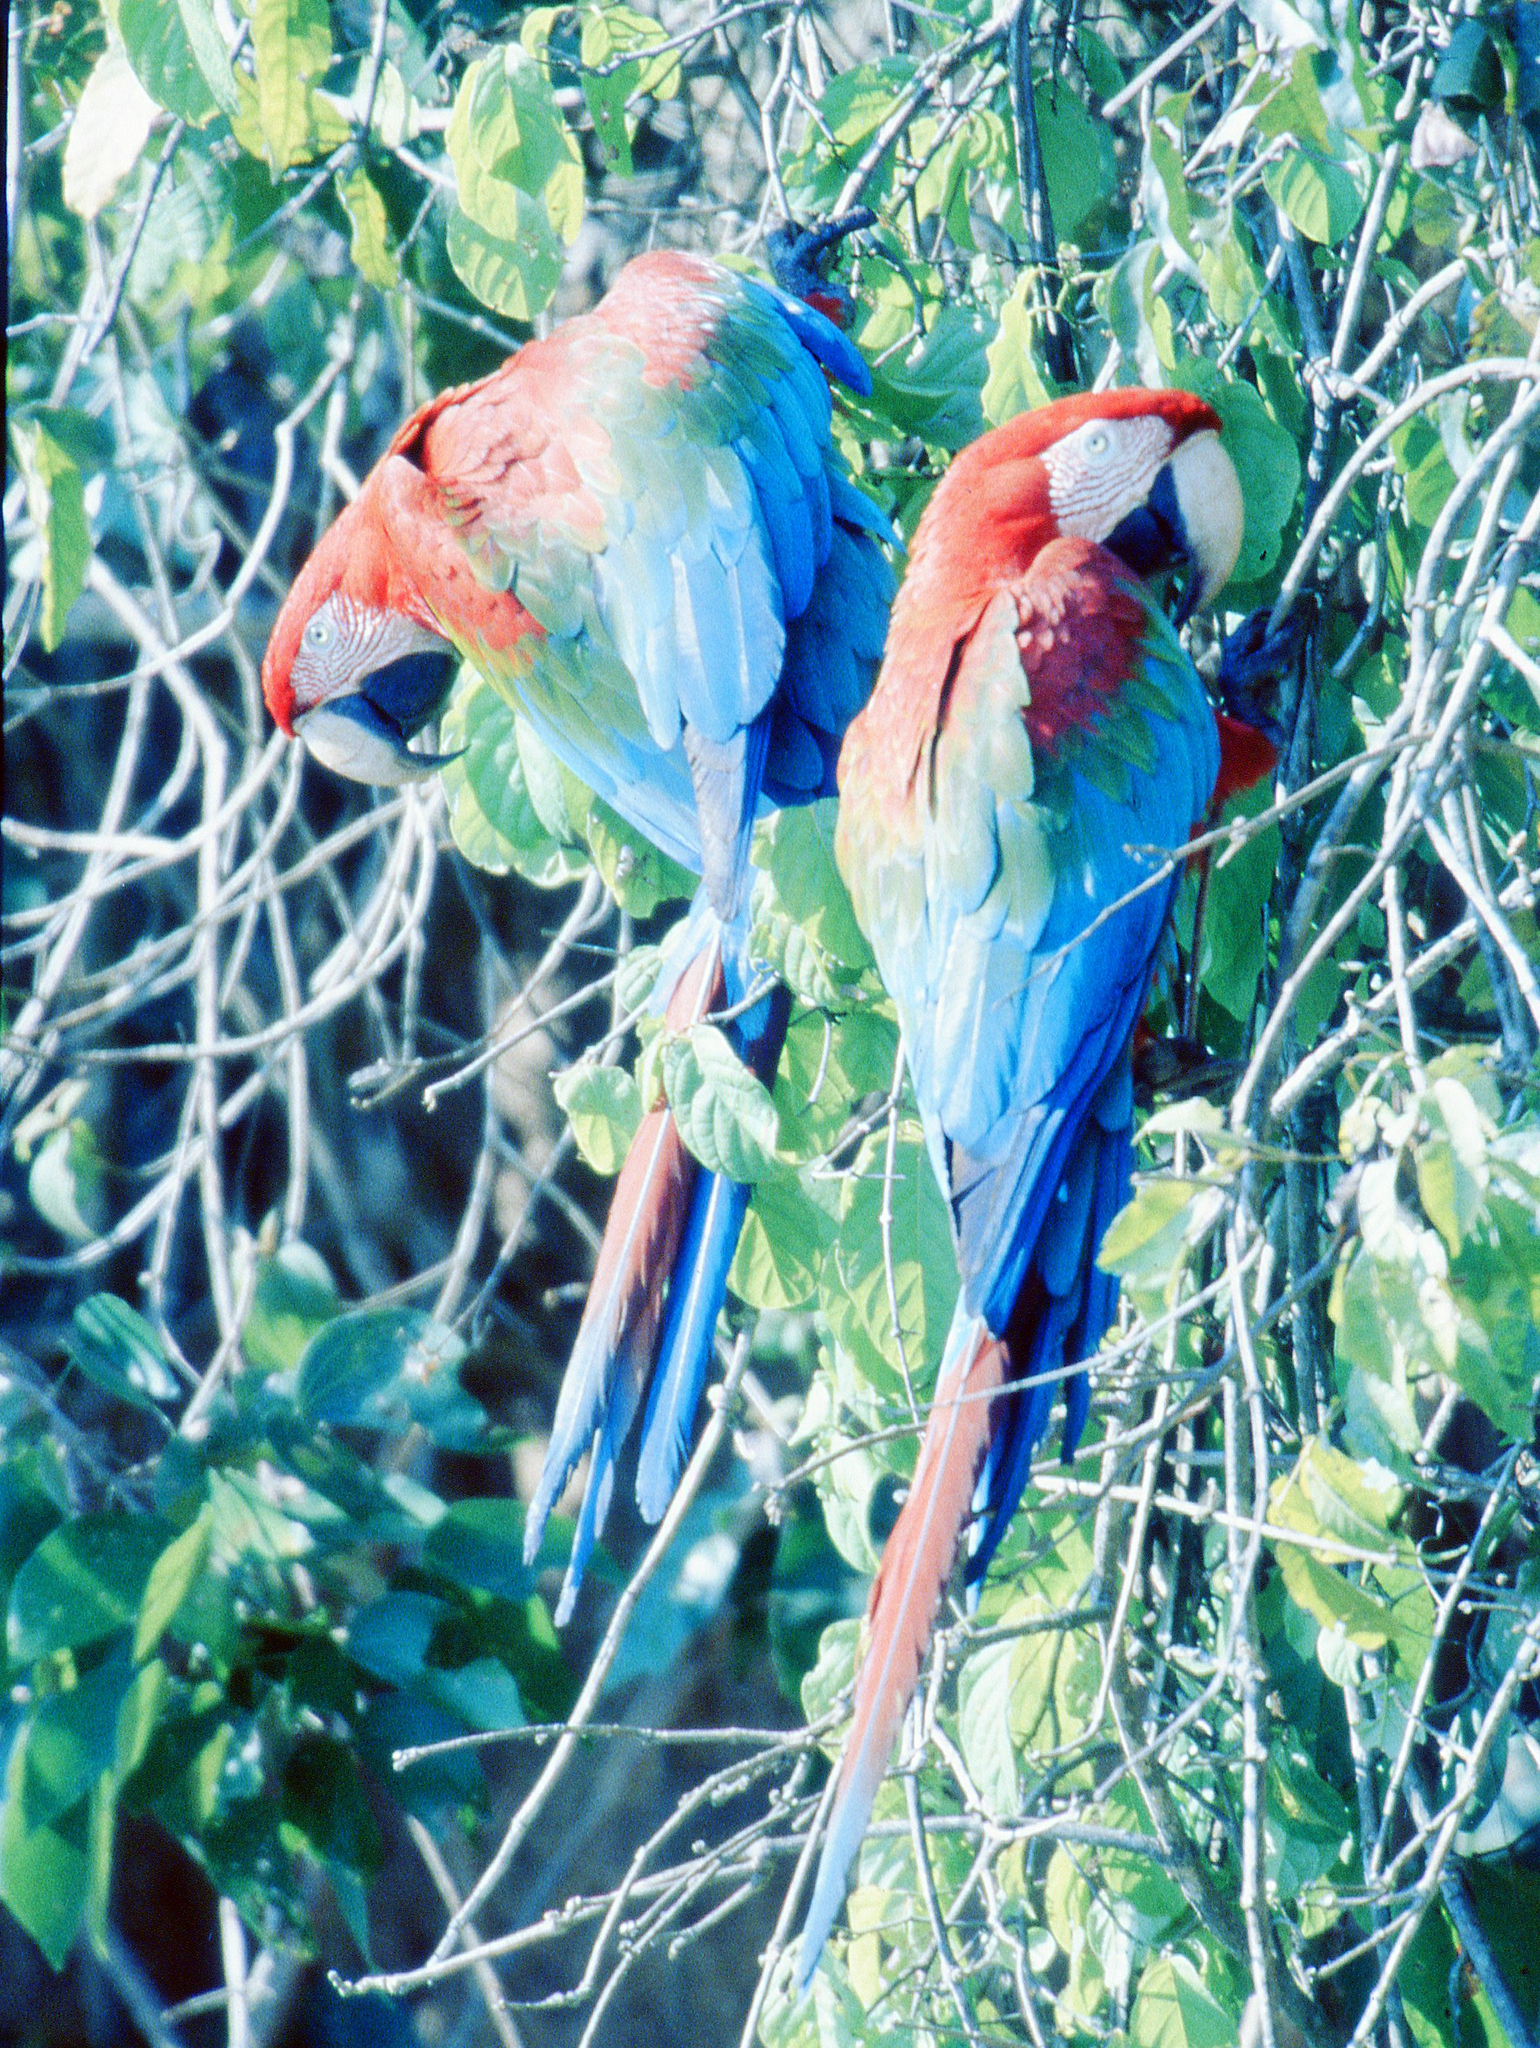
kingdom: Animalia
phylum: Chordata
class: Aves
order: Psittaciformes
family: Psittacidae
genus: Ara
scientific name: Ara chloropterus
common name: Red-and-green macaw
